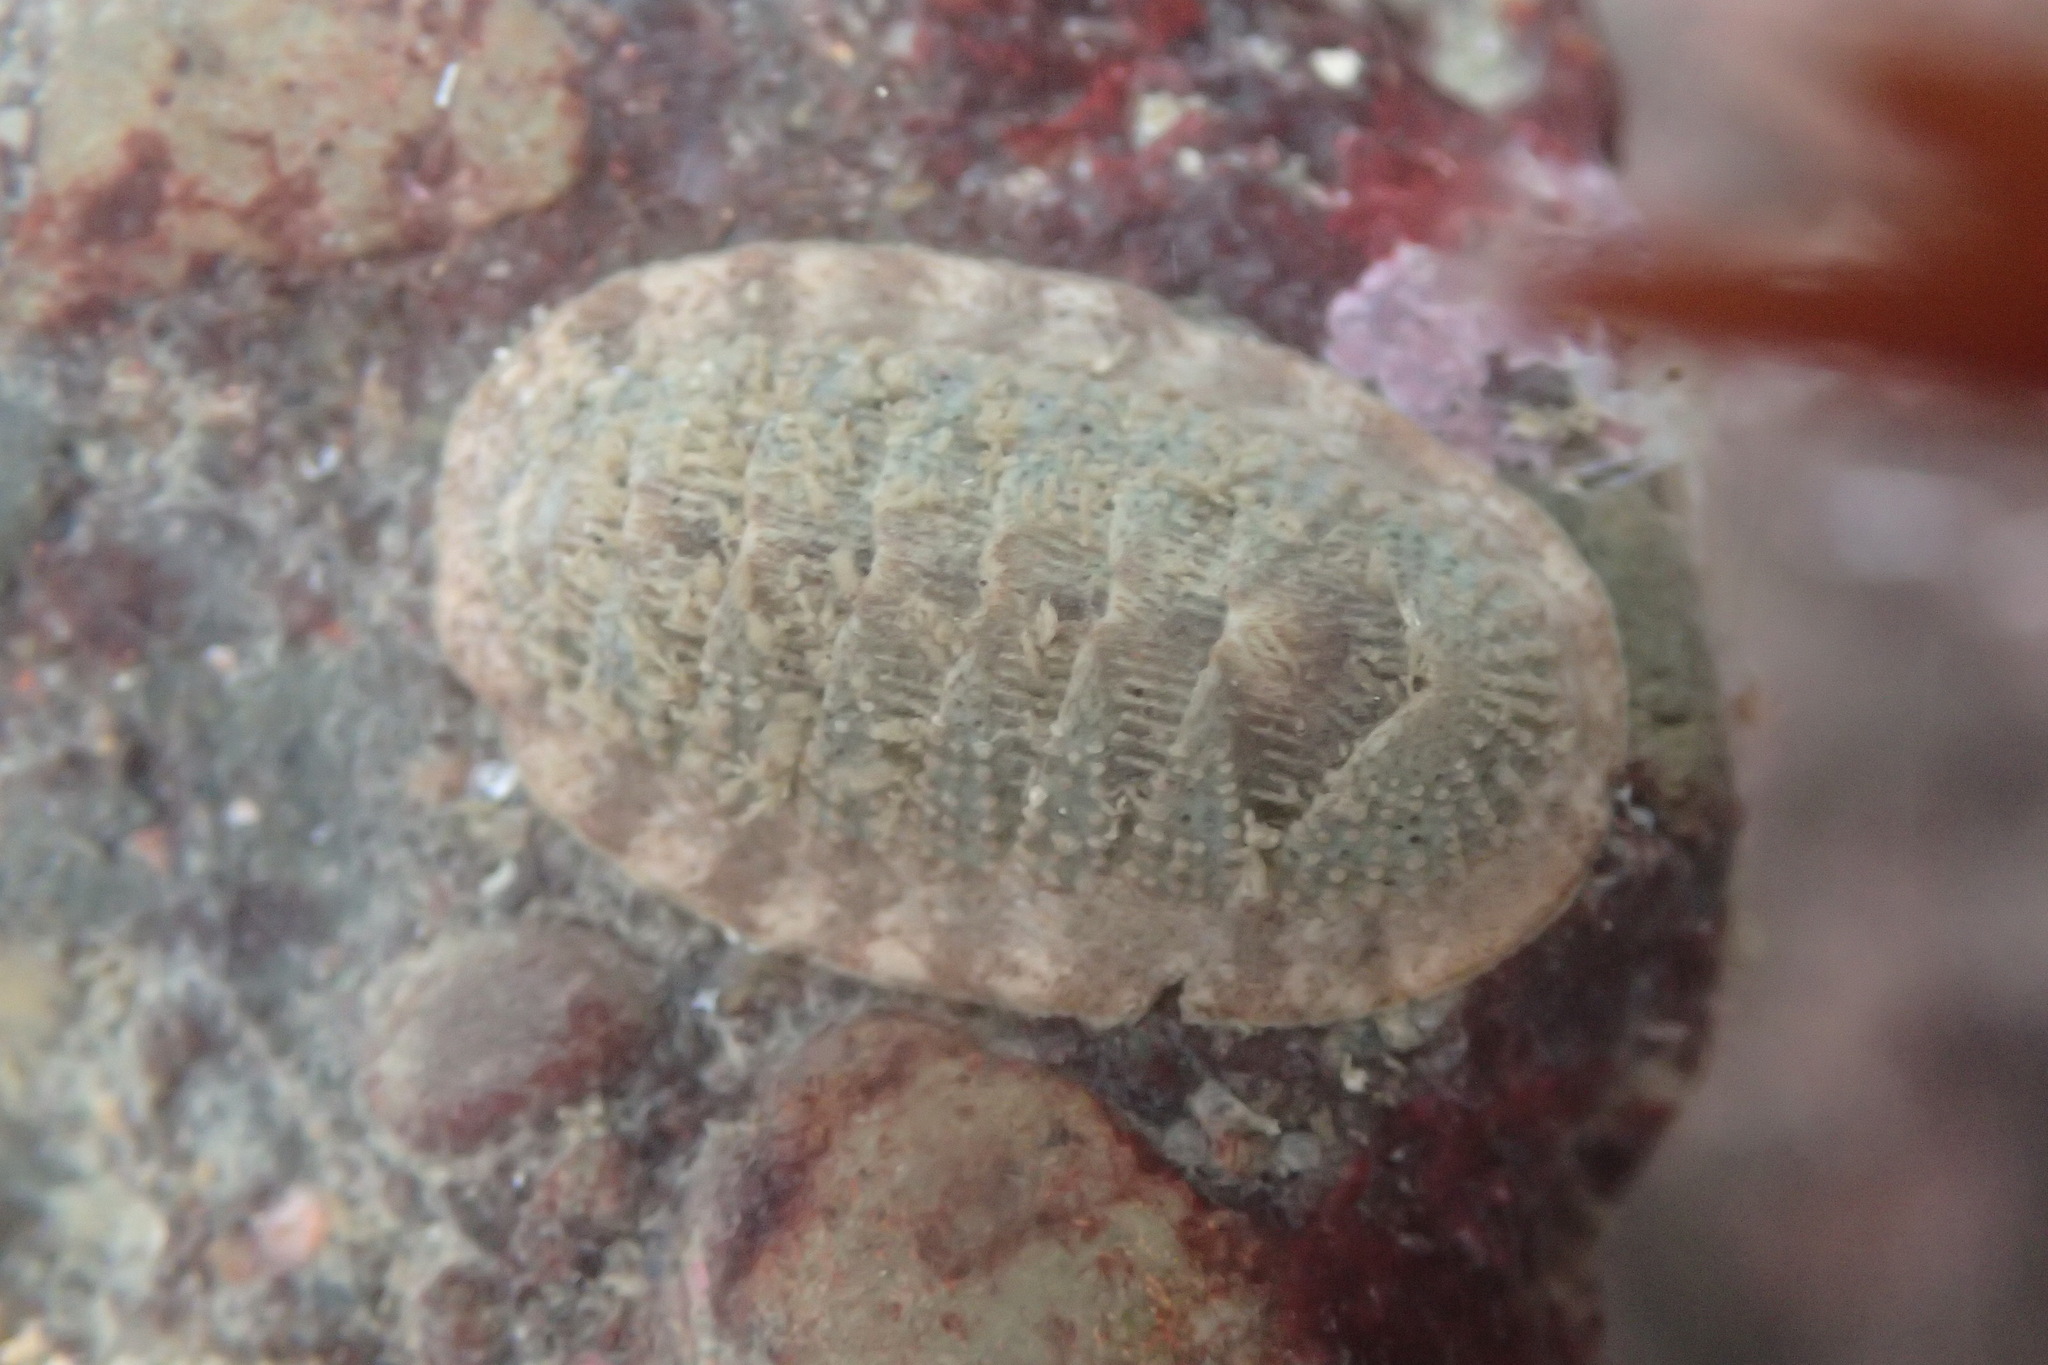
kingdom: Animalia
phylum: Mollusca
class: Polyplacophora
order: Chitonida
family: Ischnochitonidae
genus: Lepidozona
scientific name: Lepidozona cooperi
